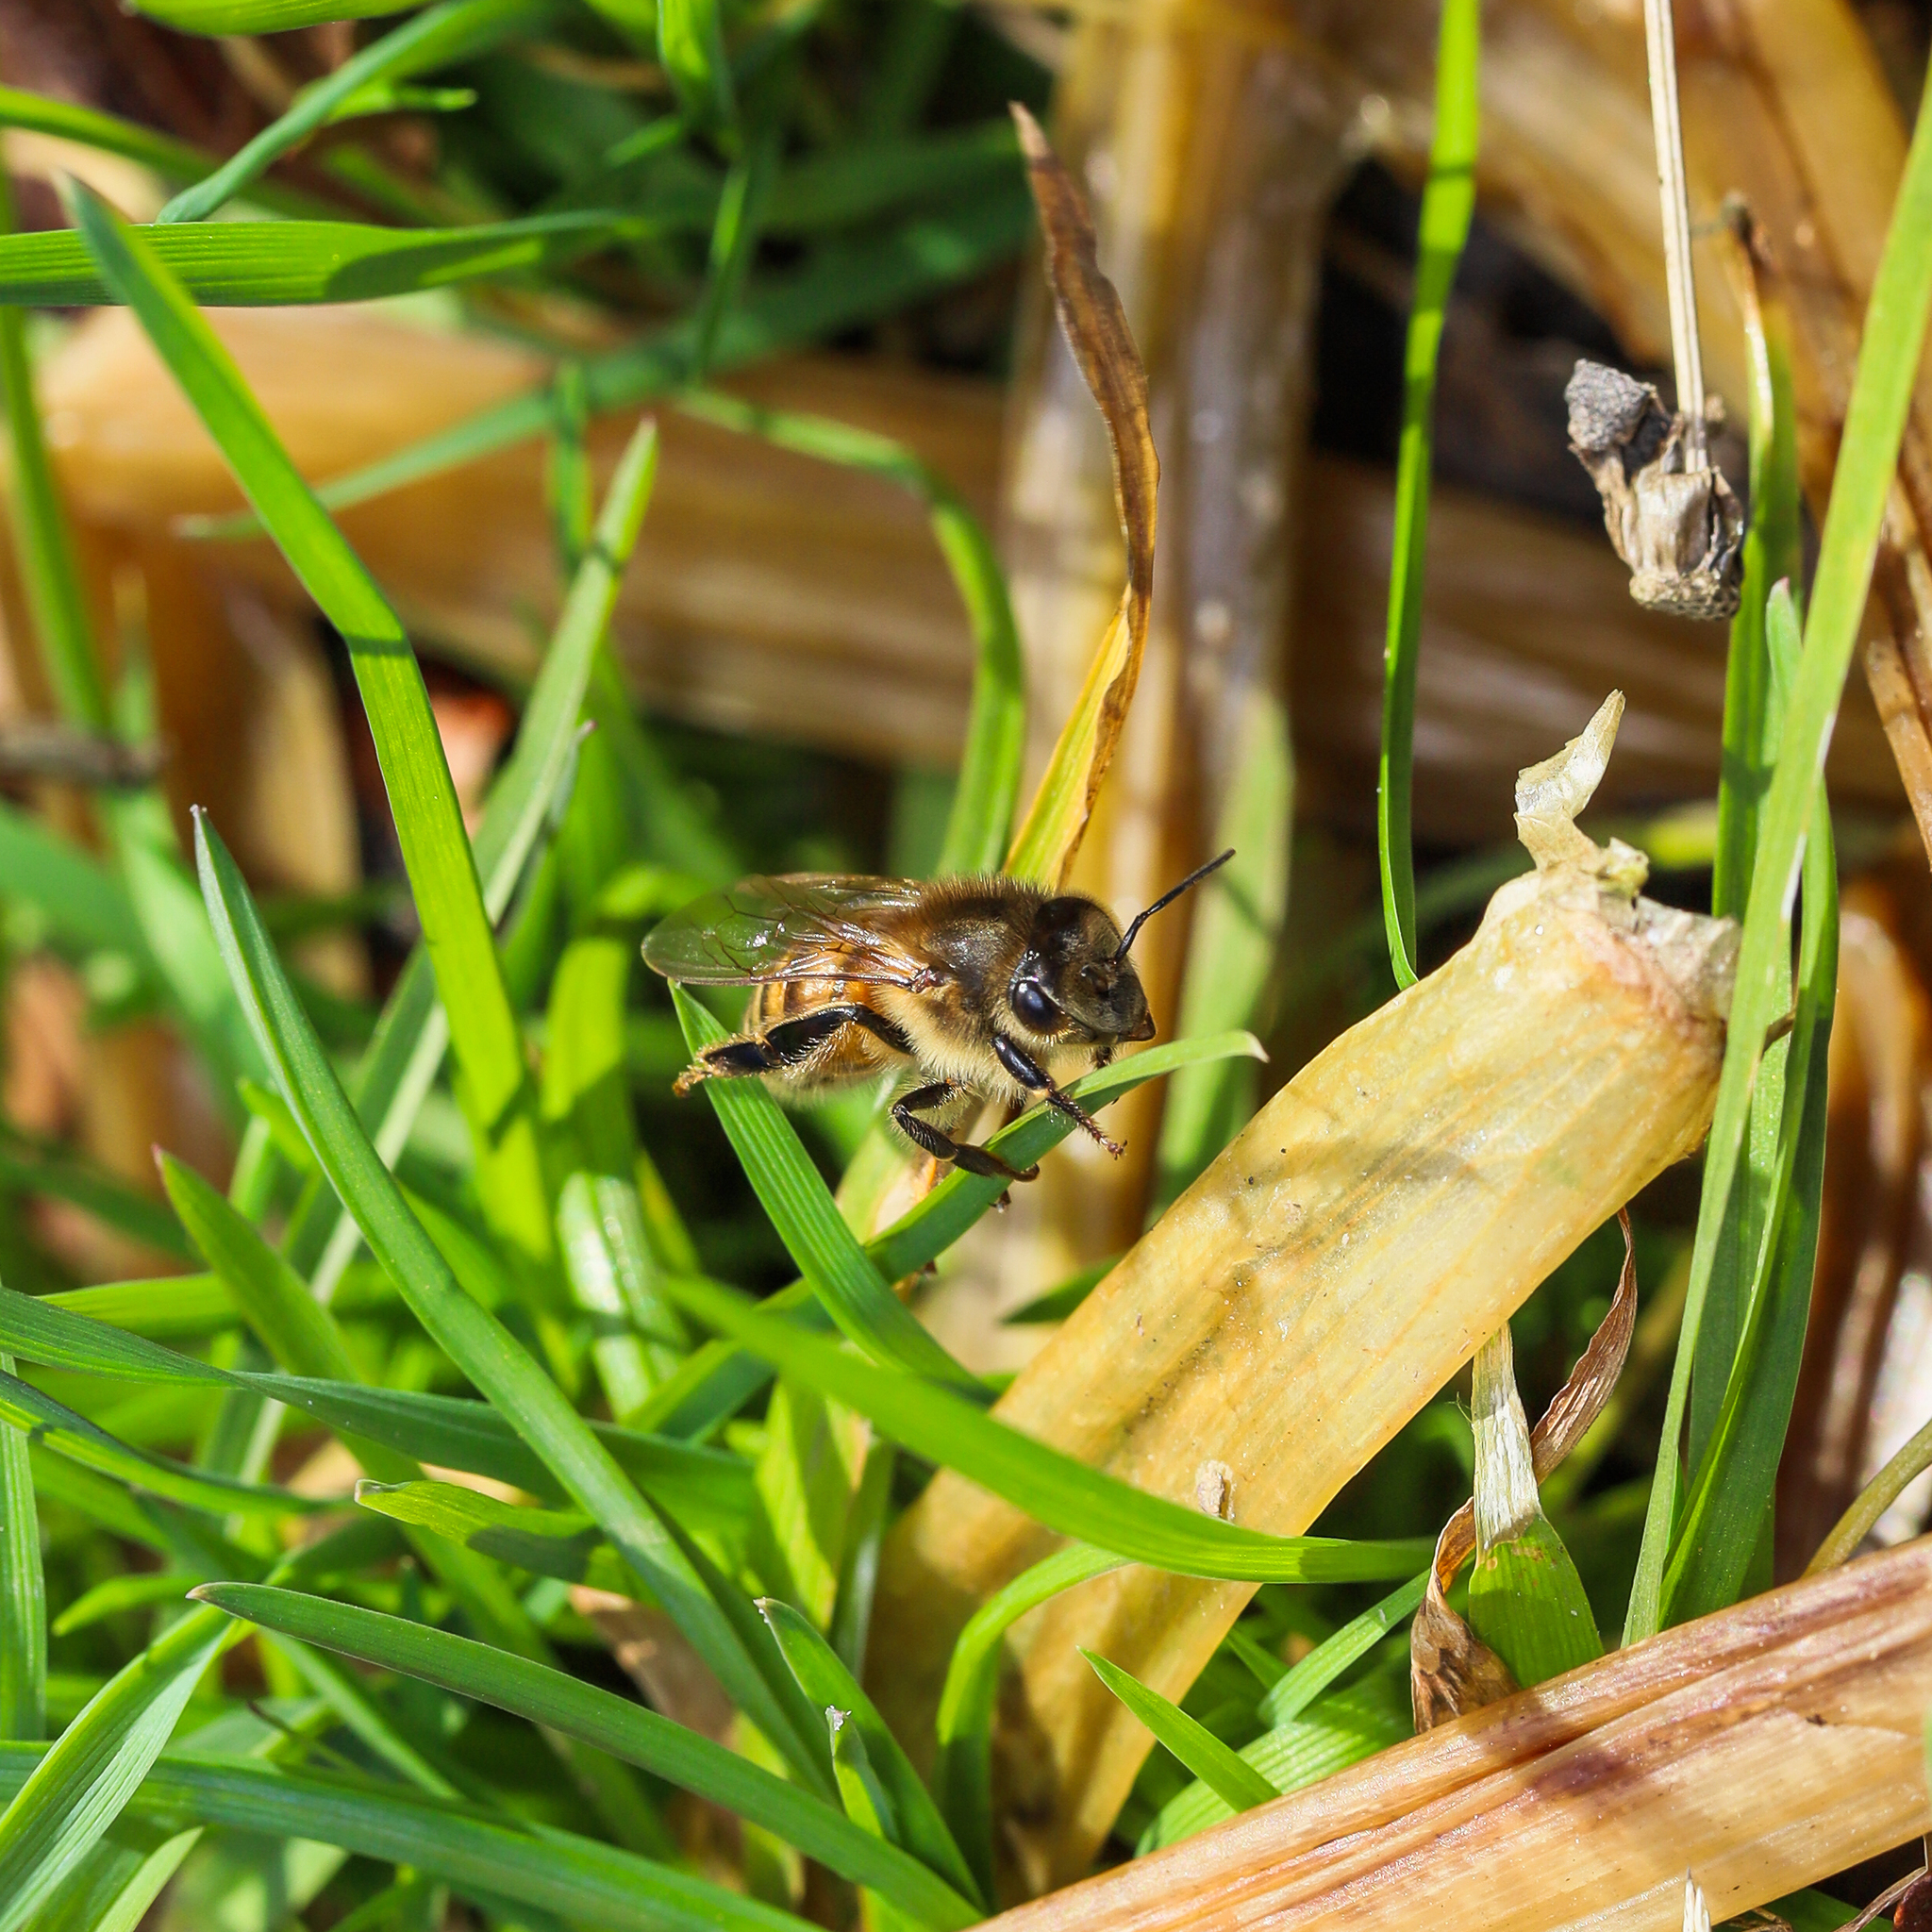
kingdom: Animalia
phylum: Arthropoda
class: Insecta
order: Hymenoptera
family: Apidae
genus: Apis
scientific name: Apis mellifera
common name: Honey bee
